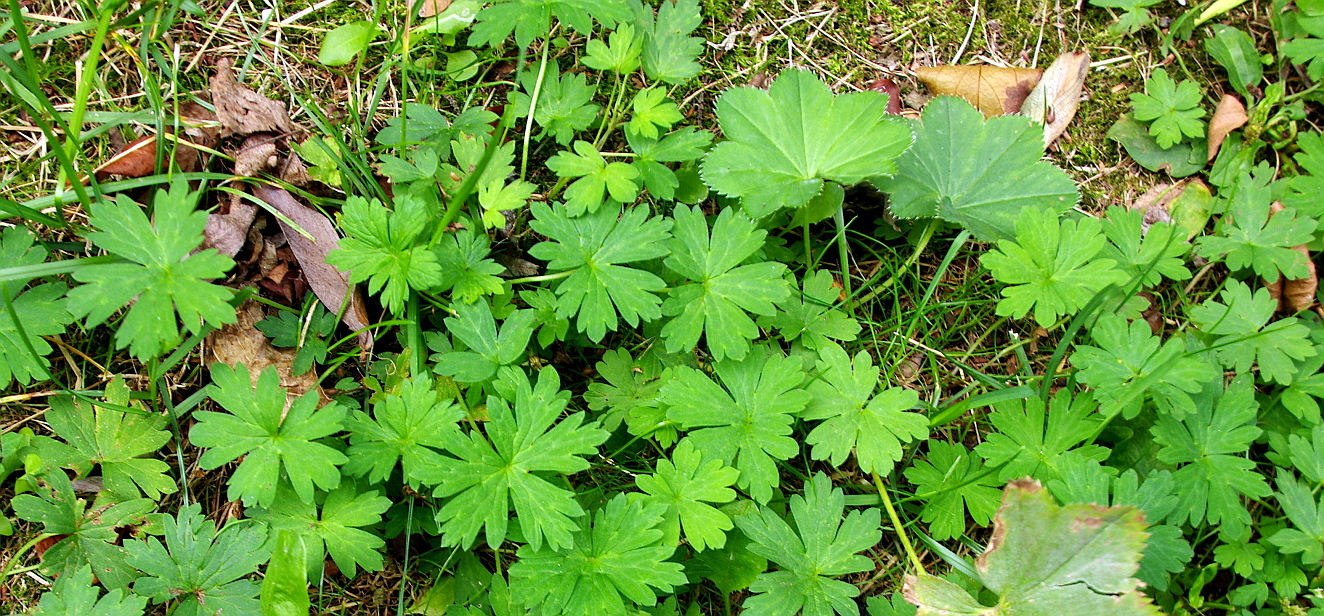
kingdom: Plantae
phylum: Tracheophyta
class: Magnoliopsida
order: Geraniales
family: Geraniaceae
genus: Geranium
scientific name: Geranium sibiricum
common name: Siberian crane's-bill
